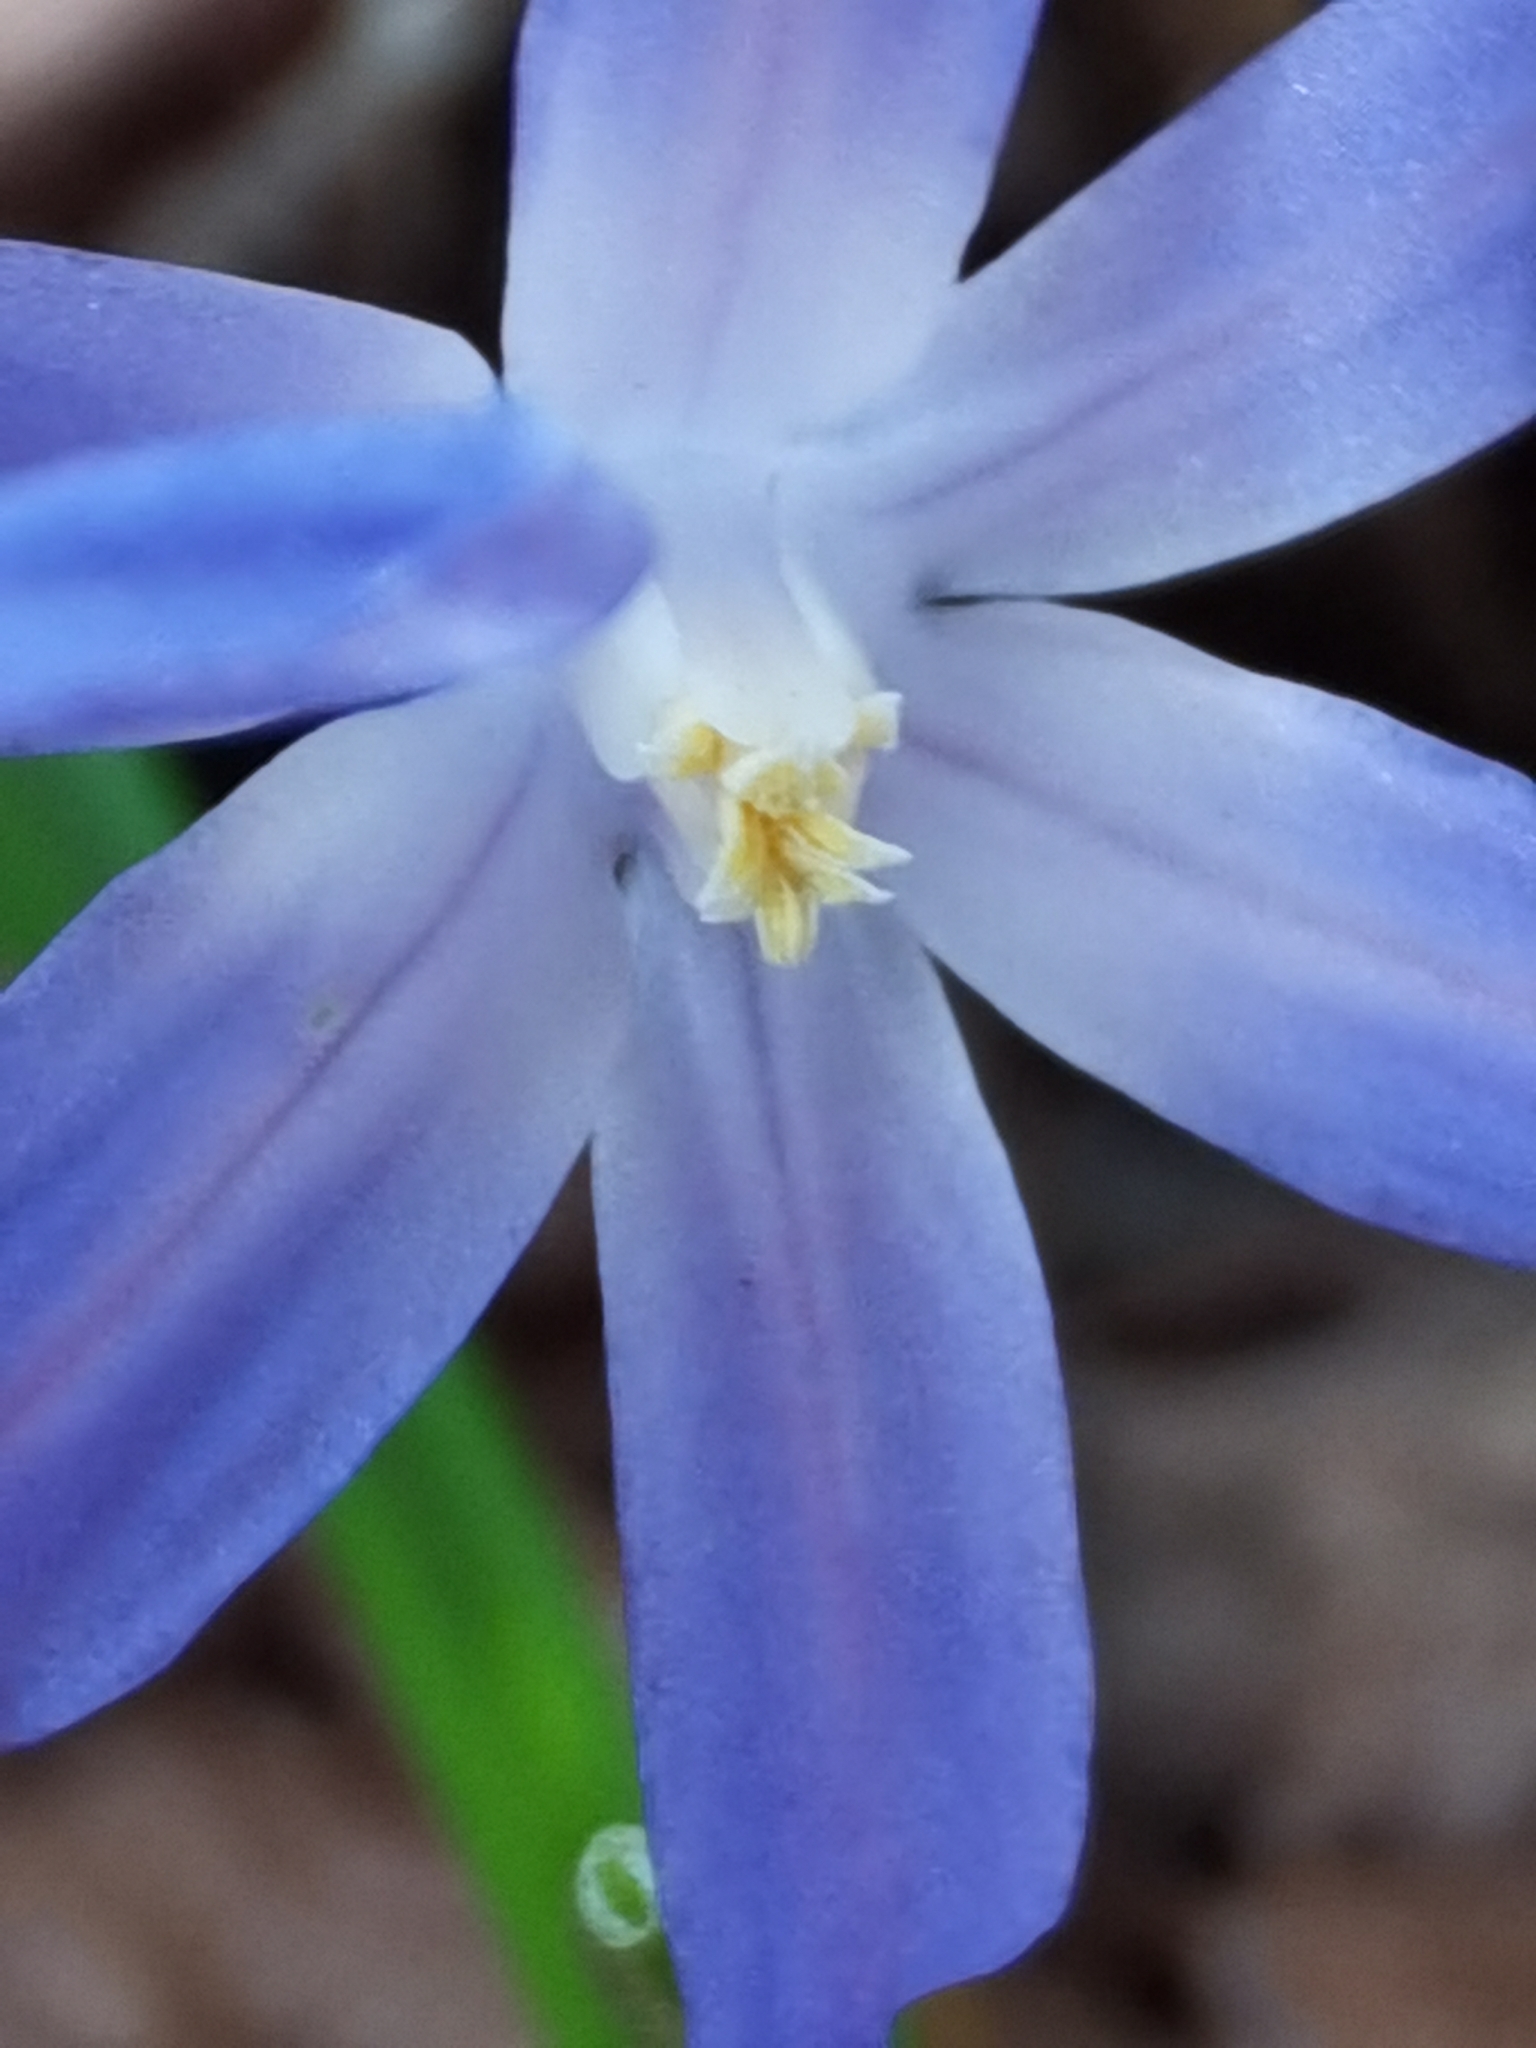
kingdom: Plantae
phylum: Tracheophyta
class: Liliopsida
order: Asparagales
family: Asparagaceae
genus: Scilla
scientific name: Scilla luciliae
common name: Boissier's glory-of-the-snow
